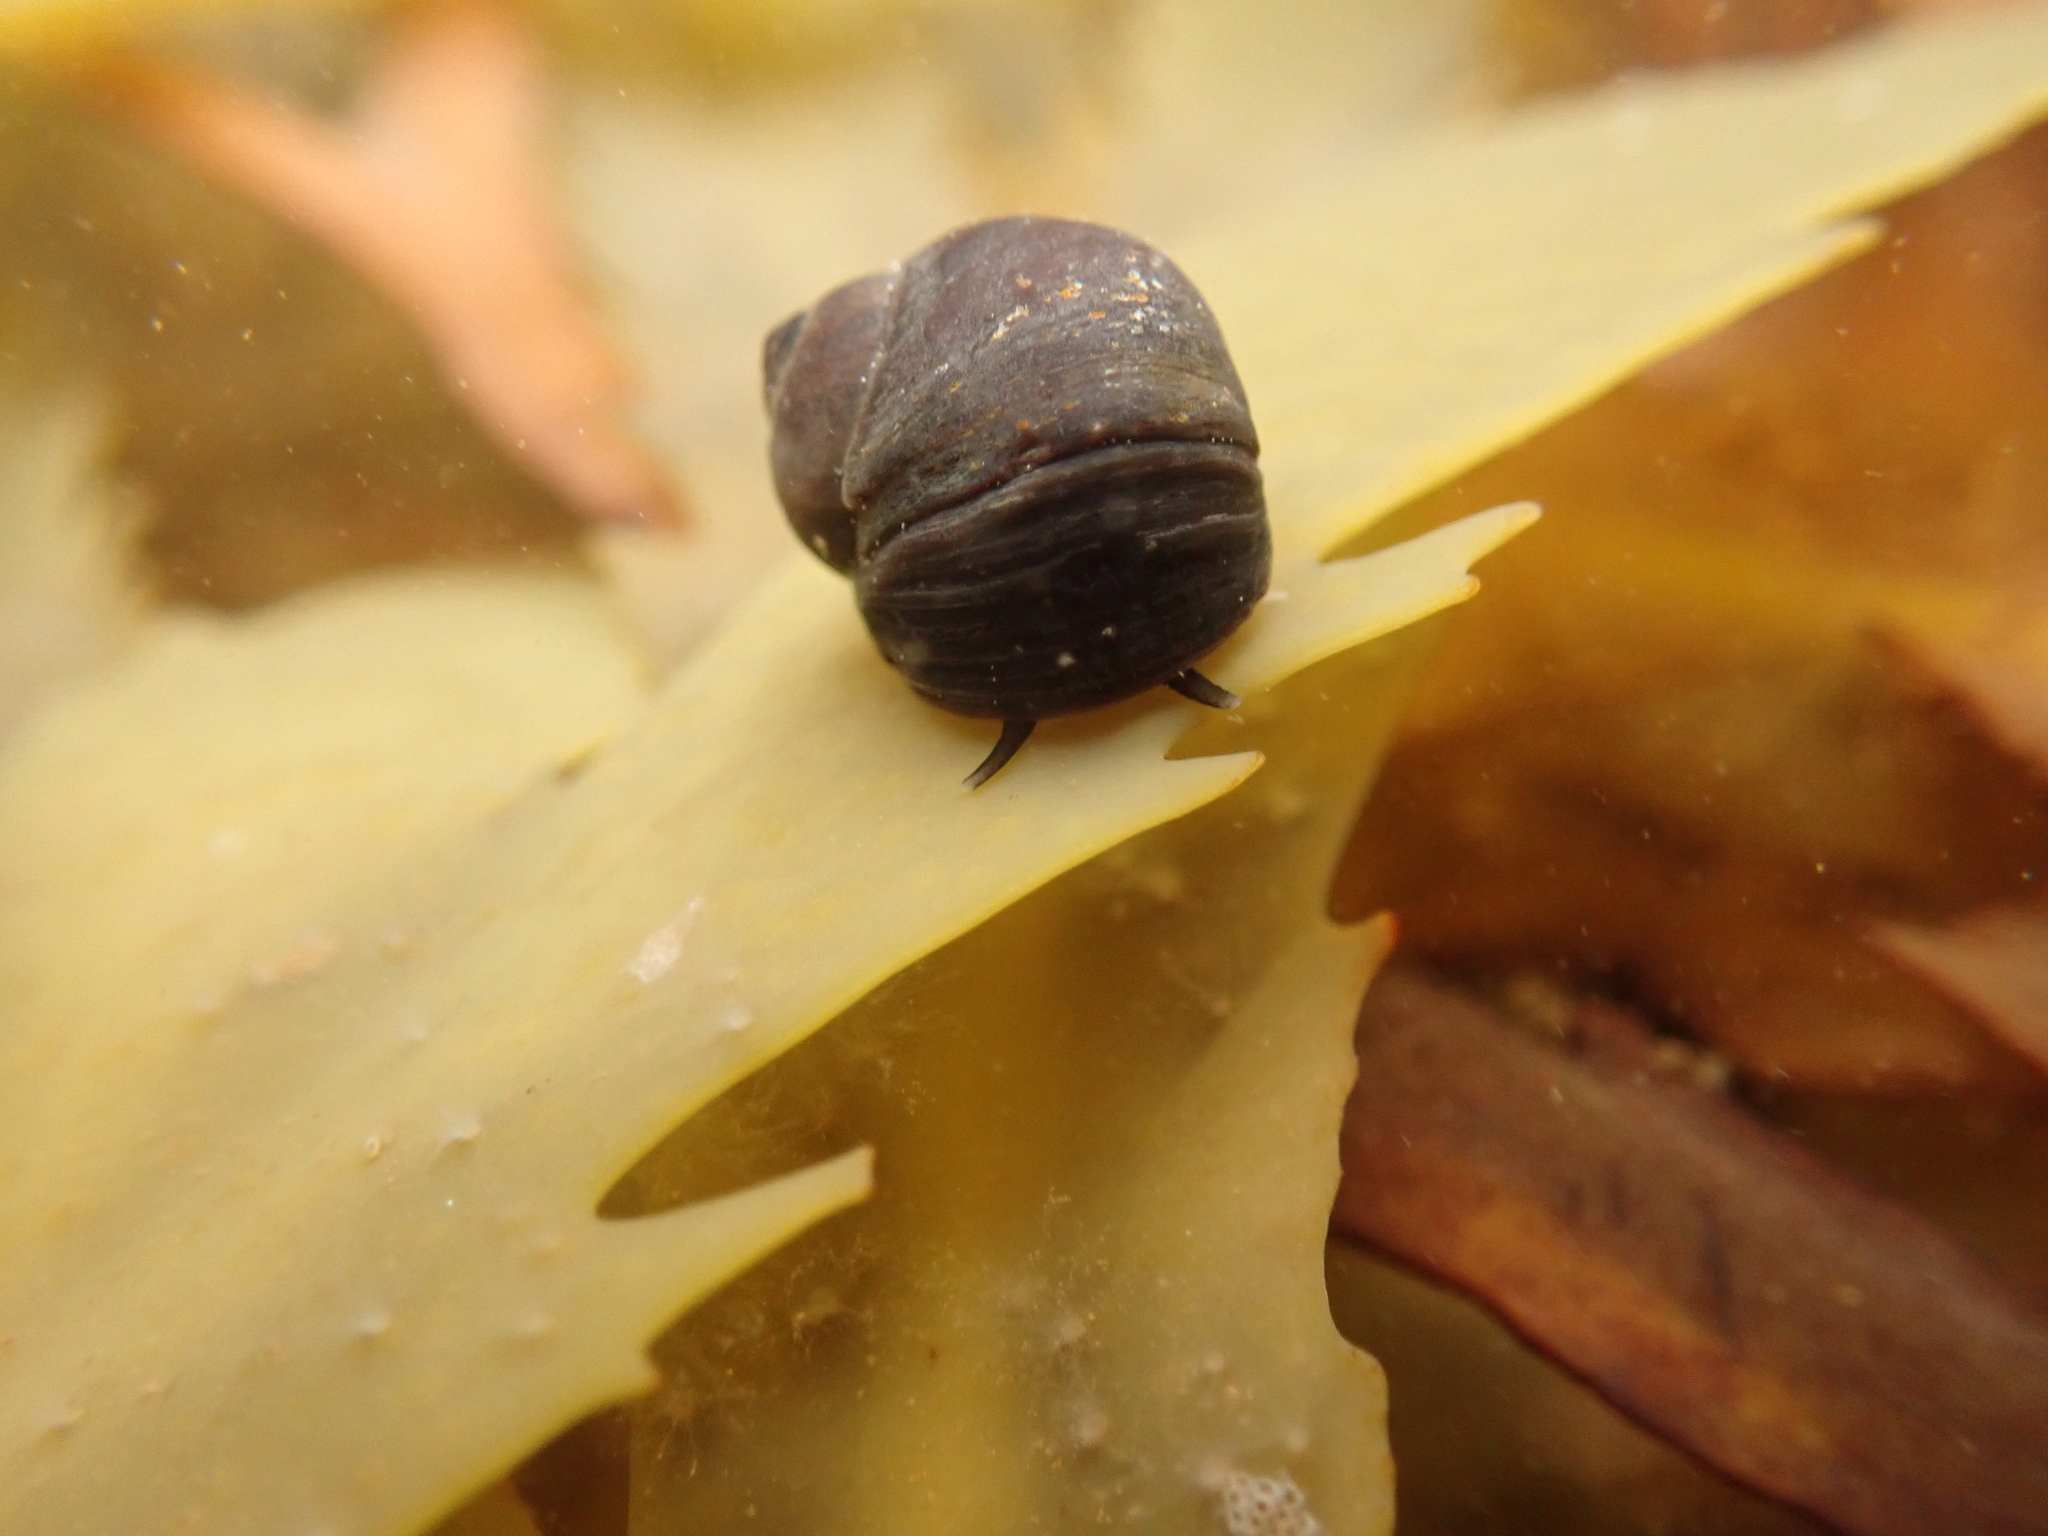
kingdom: Animalia
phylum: Mollusca
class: Gastropoda
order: Littorinimorpha
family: Littorinidae
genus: Littorina
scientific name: Littorina obtusata
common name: Flat periwinkle
